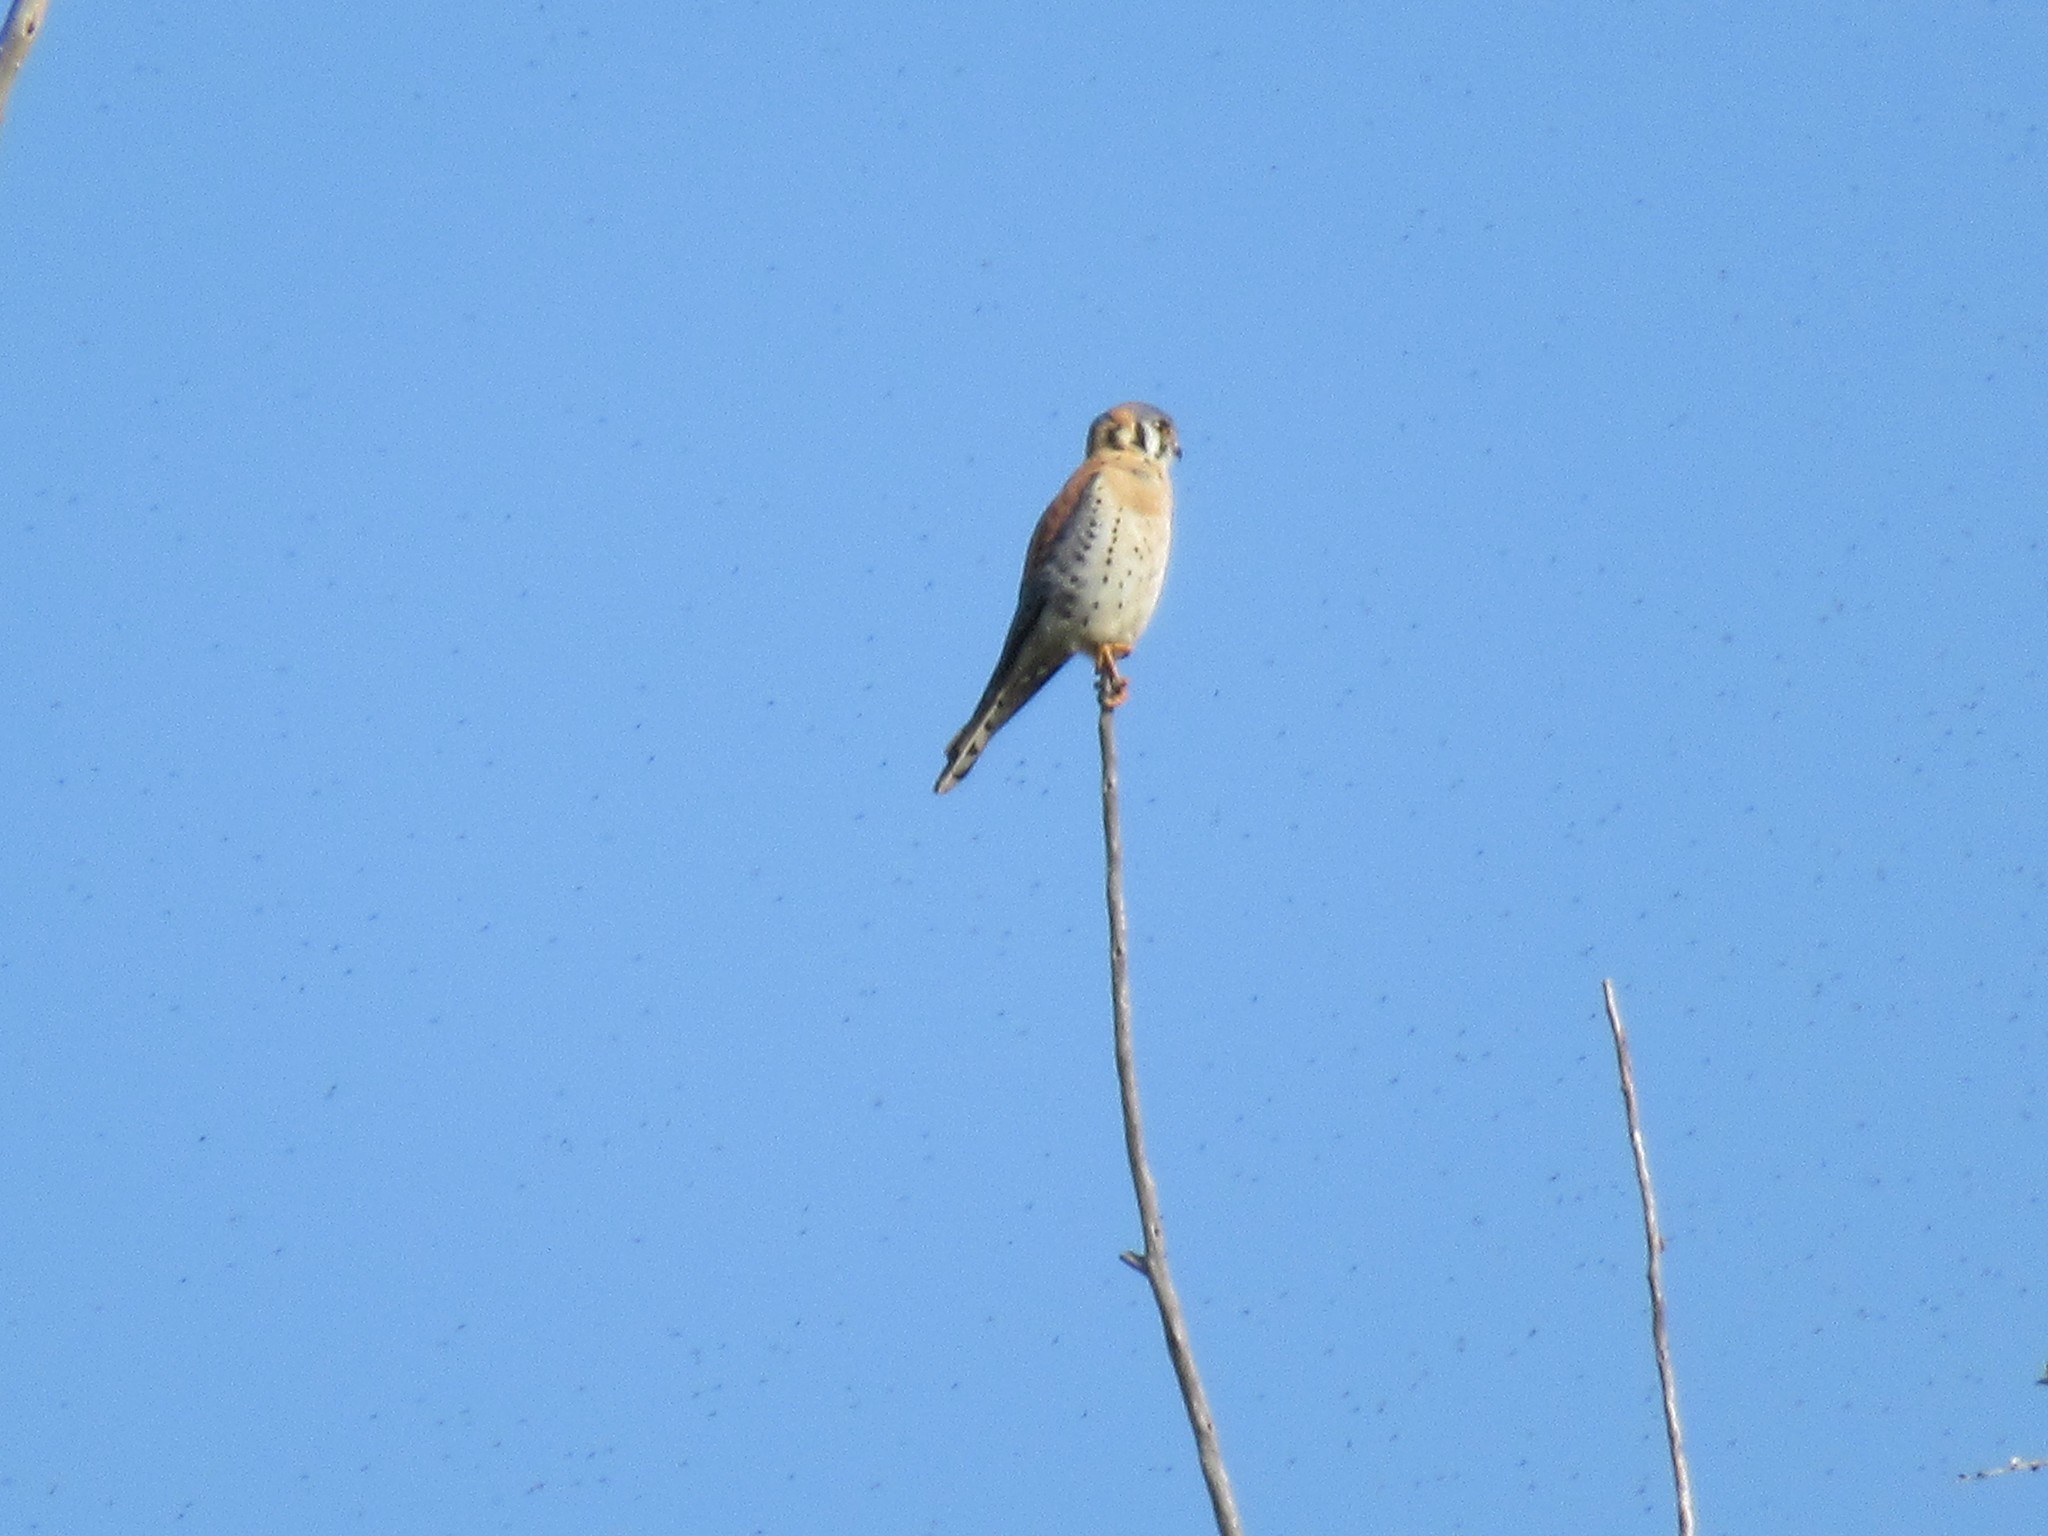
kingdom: Animalia
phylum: Chordata
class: Aves
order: Falconiformes
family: Falconidae
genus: Falco
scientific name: Falco sparverius
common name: American kestrel
